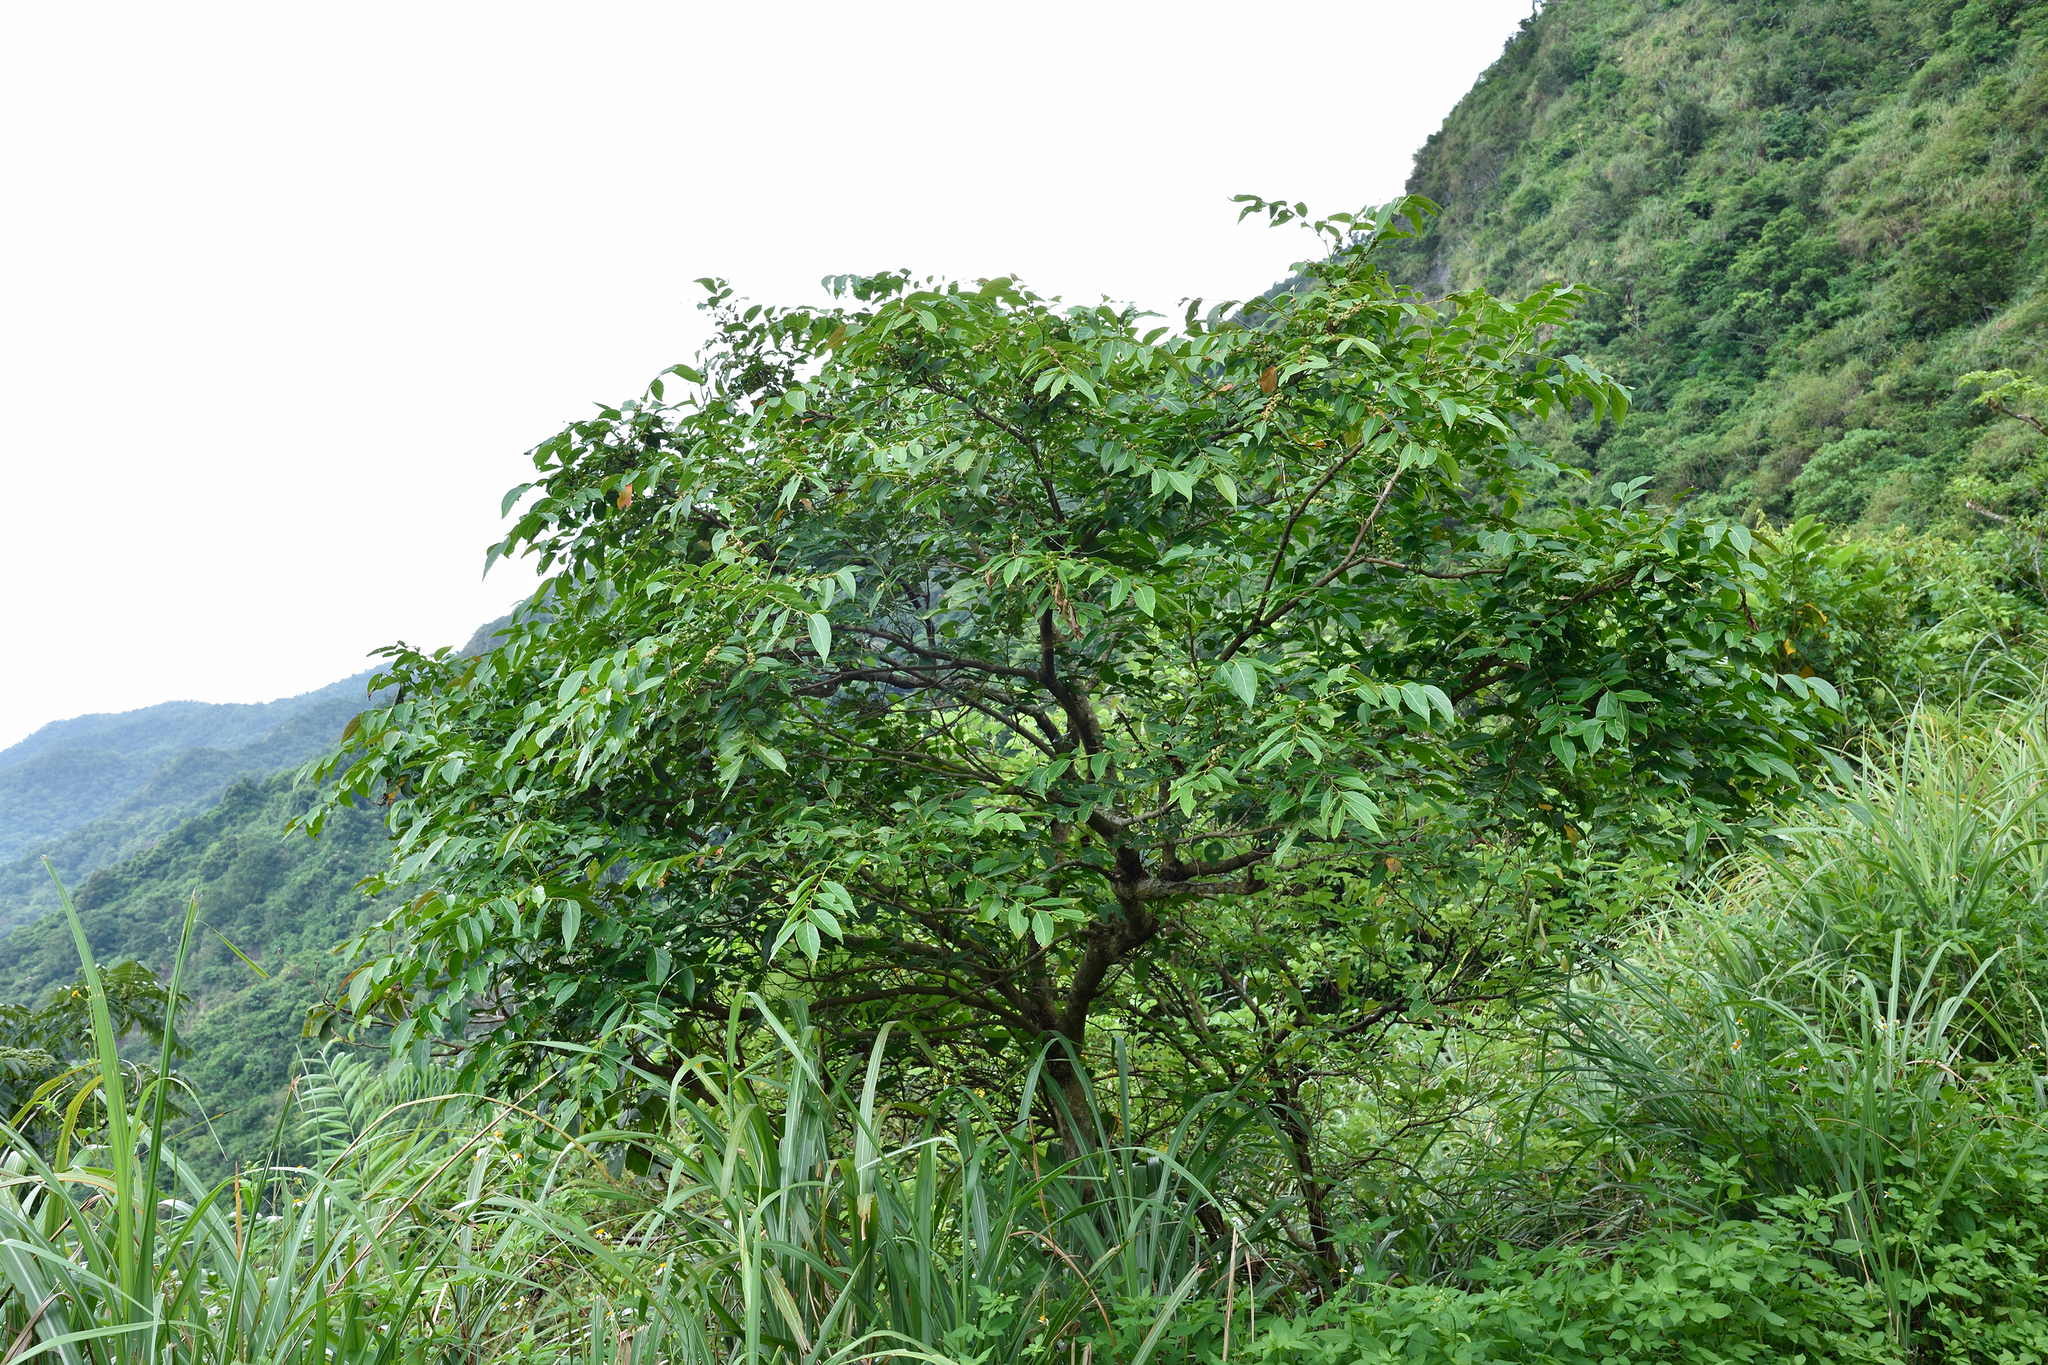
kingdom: Plantae
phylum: Tracheophyta
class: Magnoliopsida
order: Malpighiales
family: Phyllanthaceae
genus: Glochidion
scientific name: Glochidion lanceolatum
